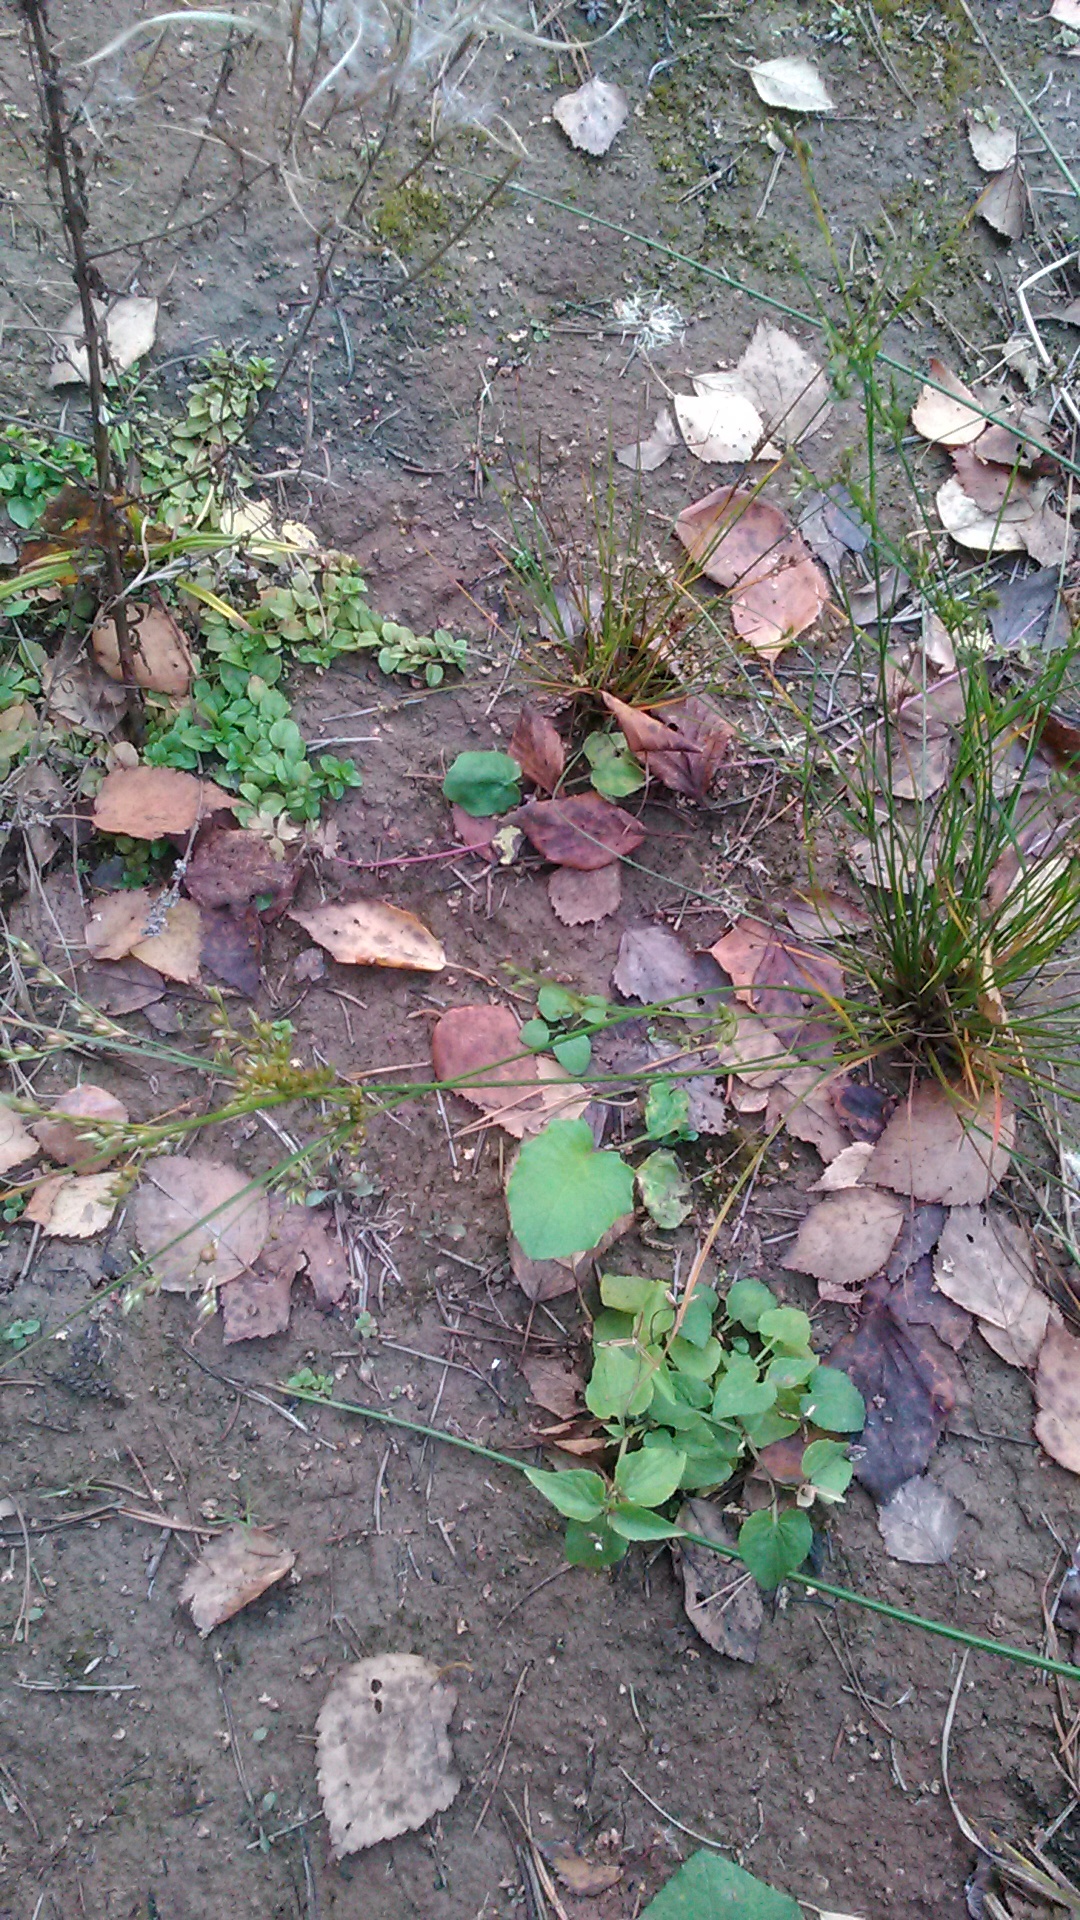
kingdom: Plantae
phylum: Tracheophyta
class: Liliopsida
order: Poales
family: Juncaceae
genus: Juncus
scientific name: Juncus tenuis
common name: Slender rush
